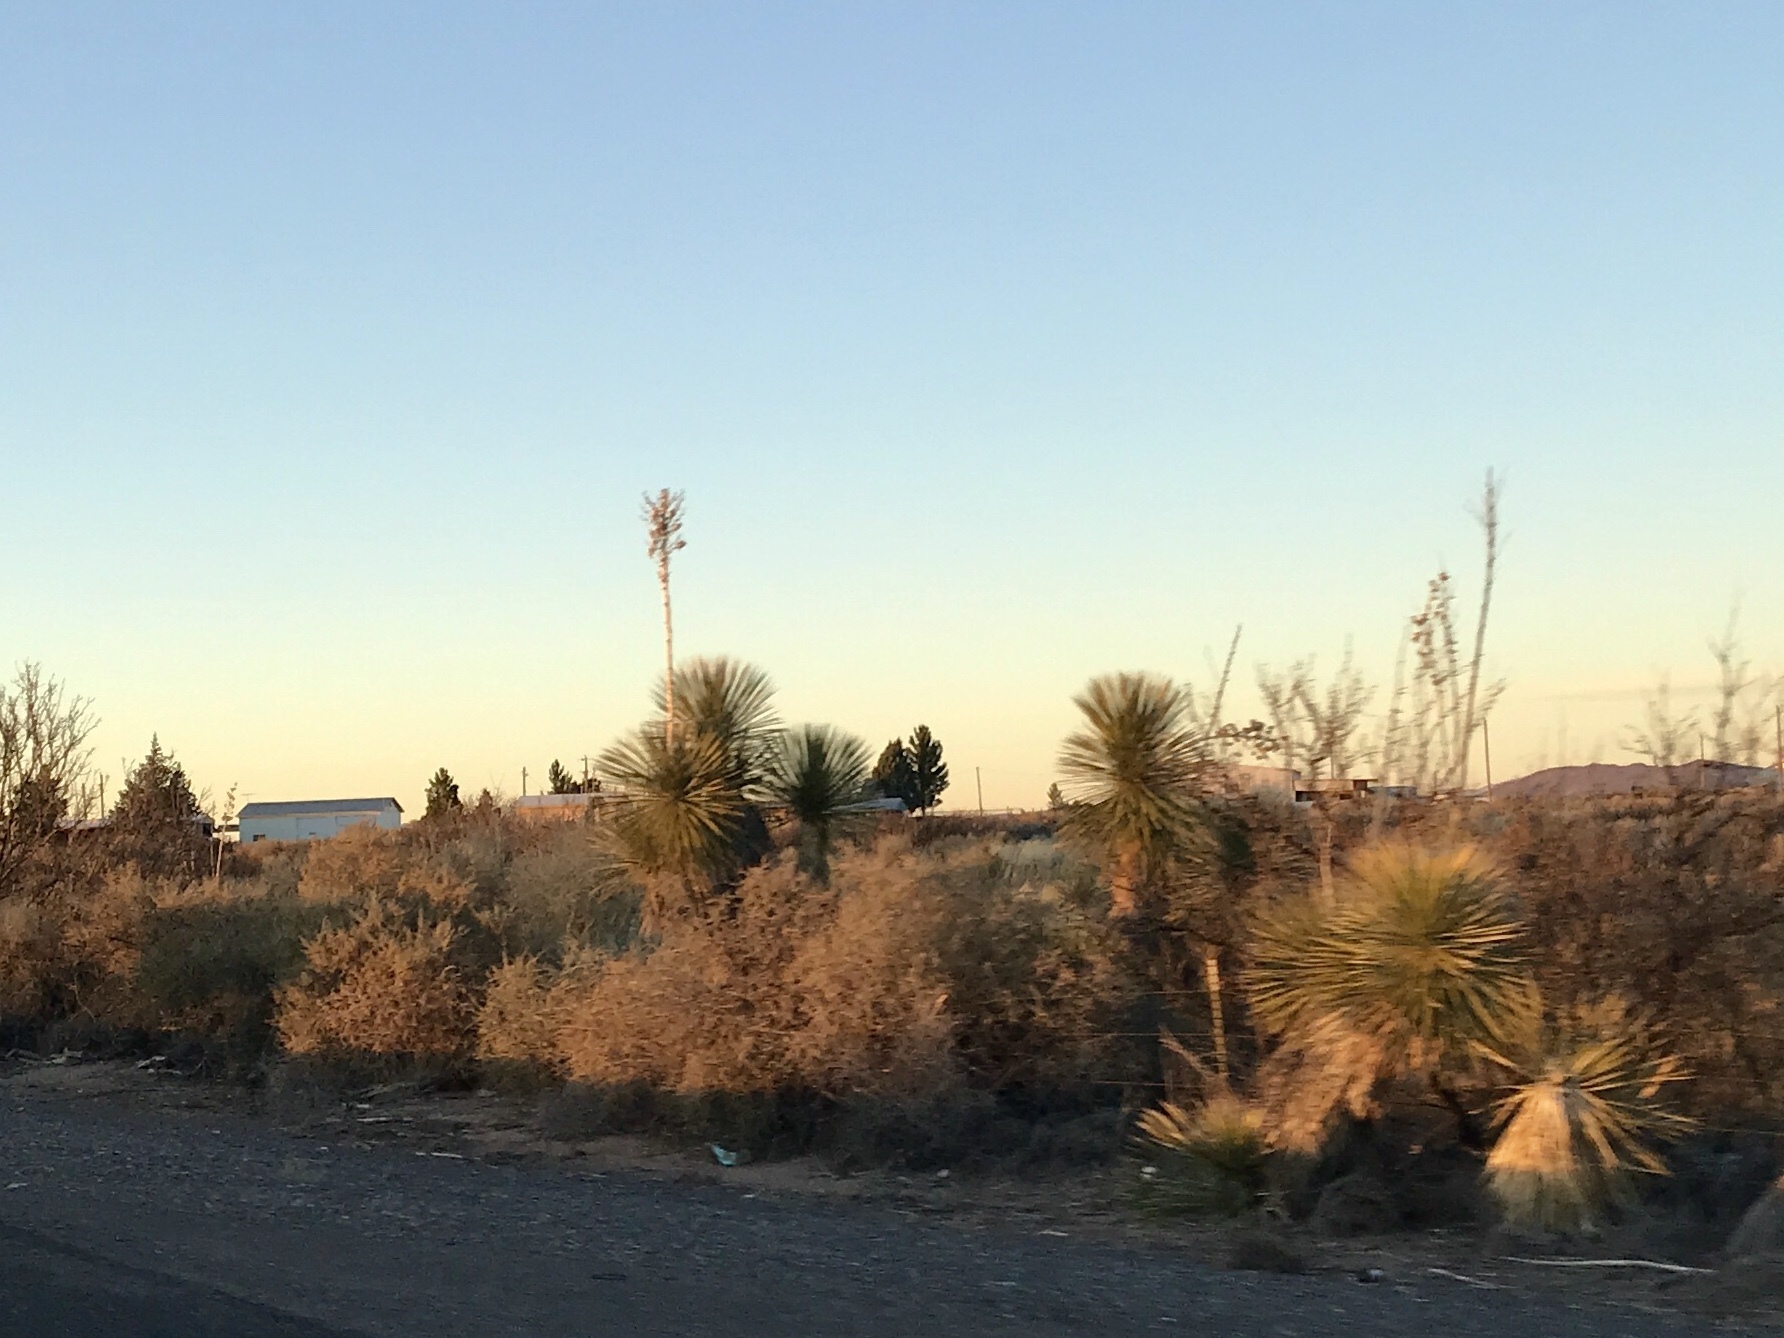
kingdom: Plantae
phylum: Tracheophyta
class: Liliopsida
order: Asparagales
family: Asparagaceae
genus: Yucca
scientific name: Yucca elata
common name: Palmella
